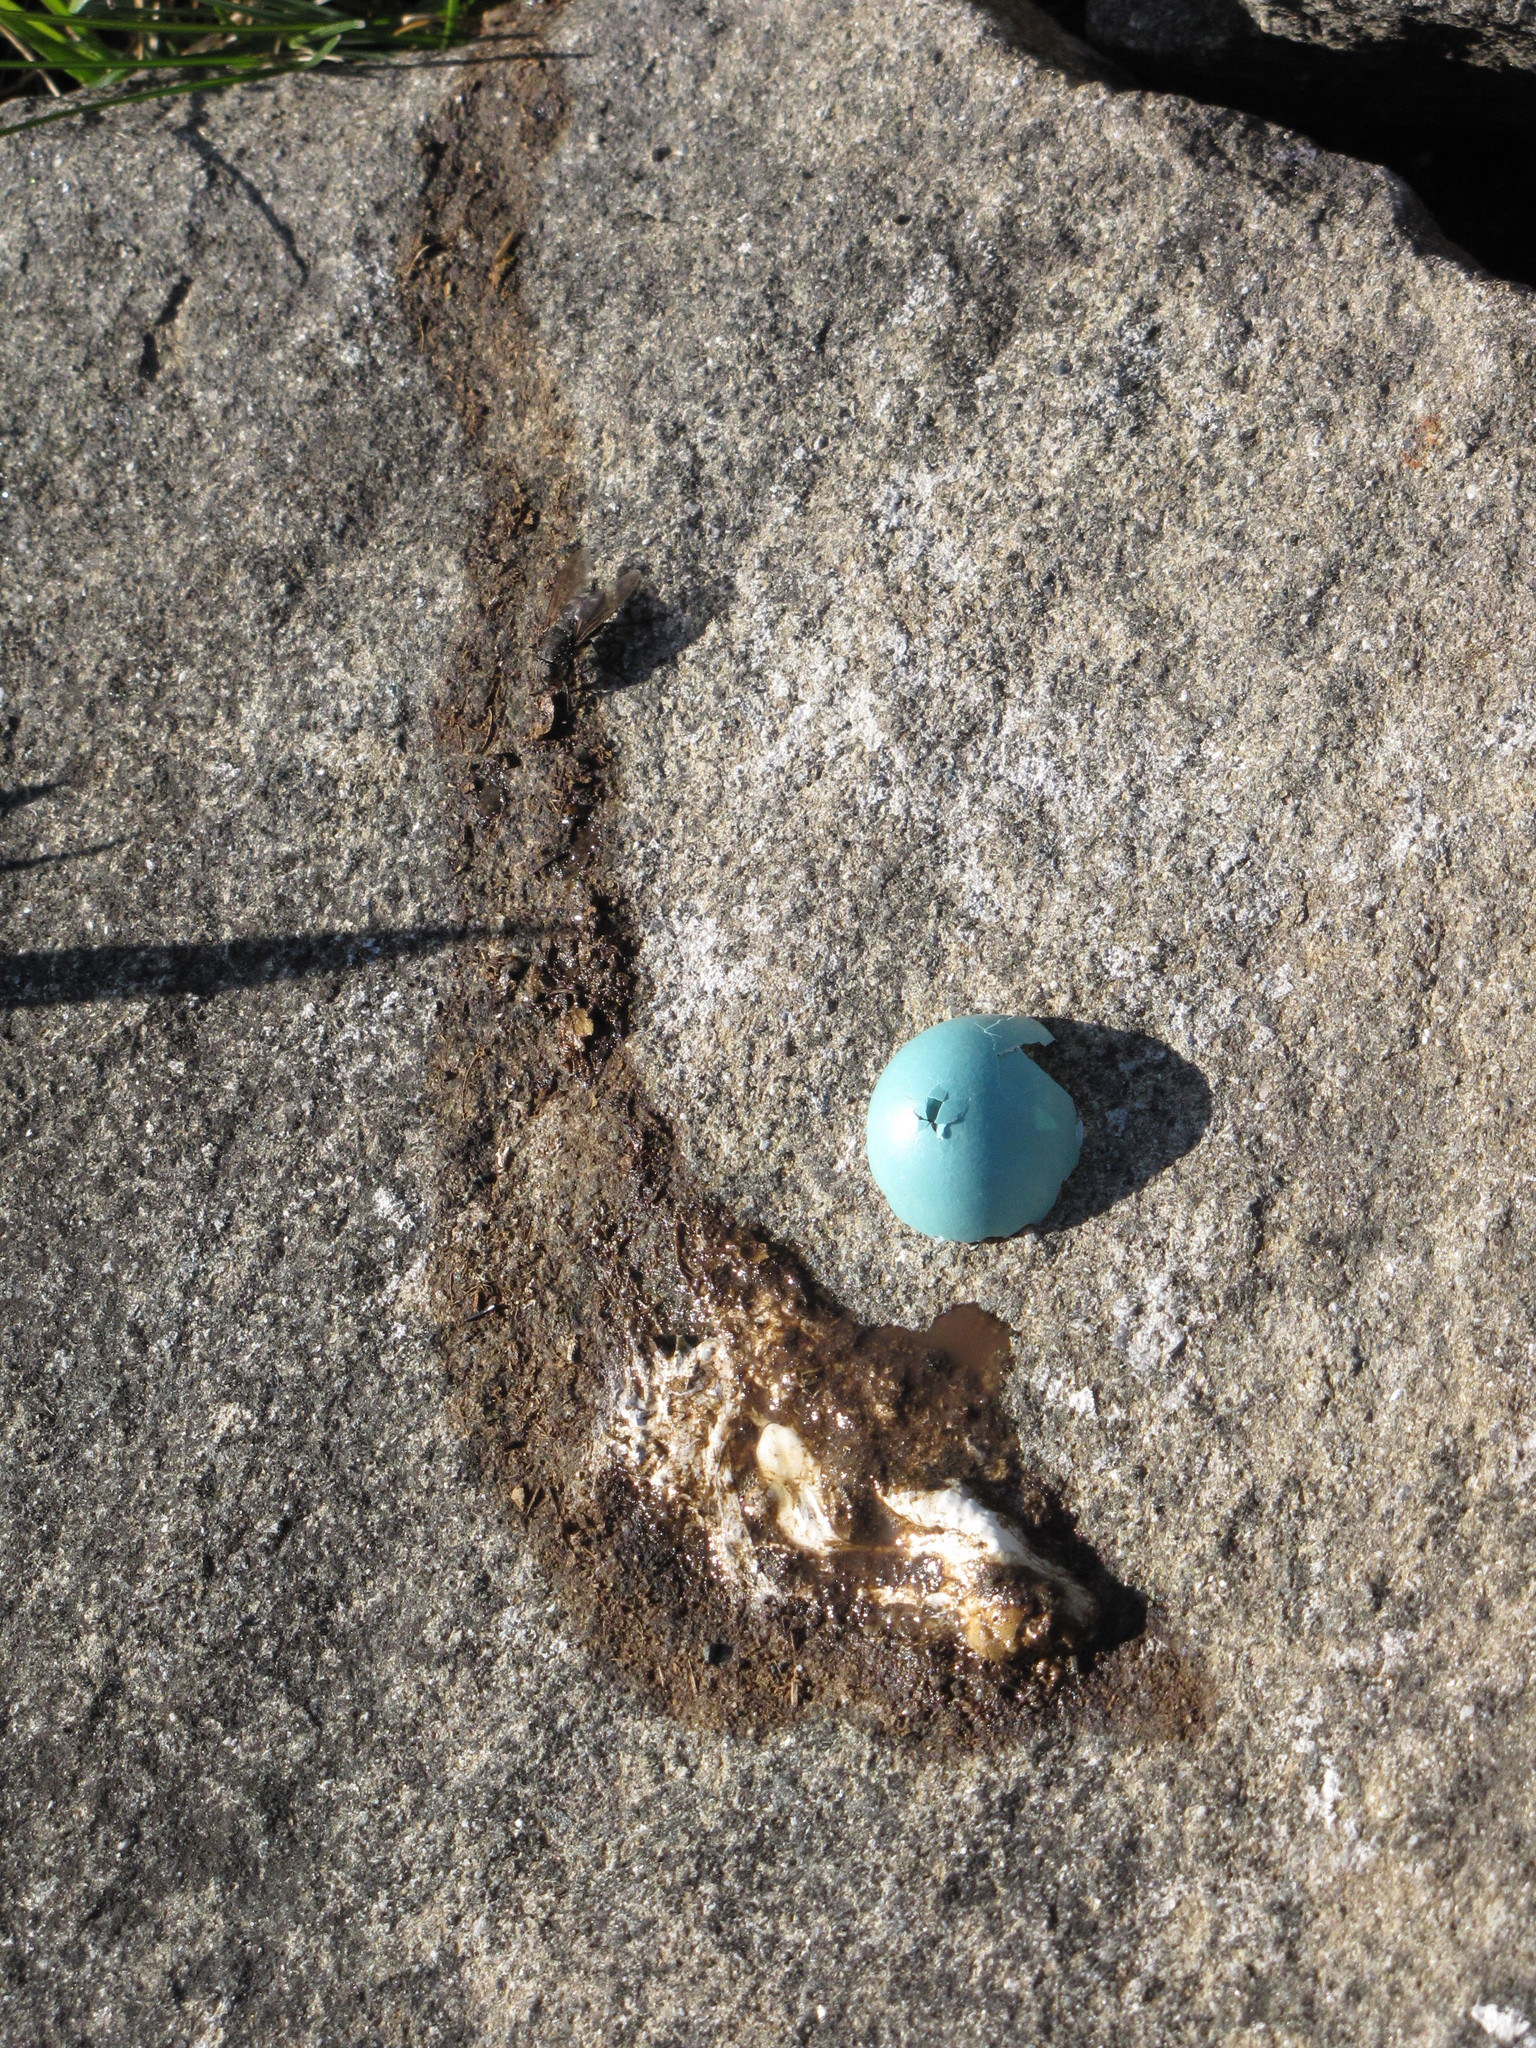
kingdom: Animalia
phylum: Chordata
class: Aves
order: Passeriformes
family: Turdidae
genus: Turdus
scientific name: Turdus migratorius
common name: American robin
